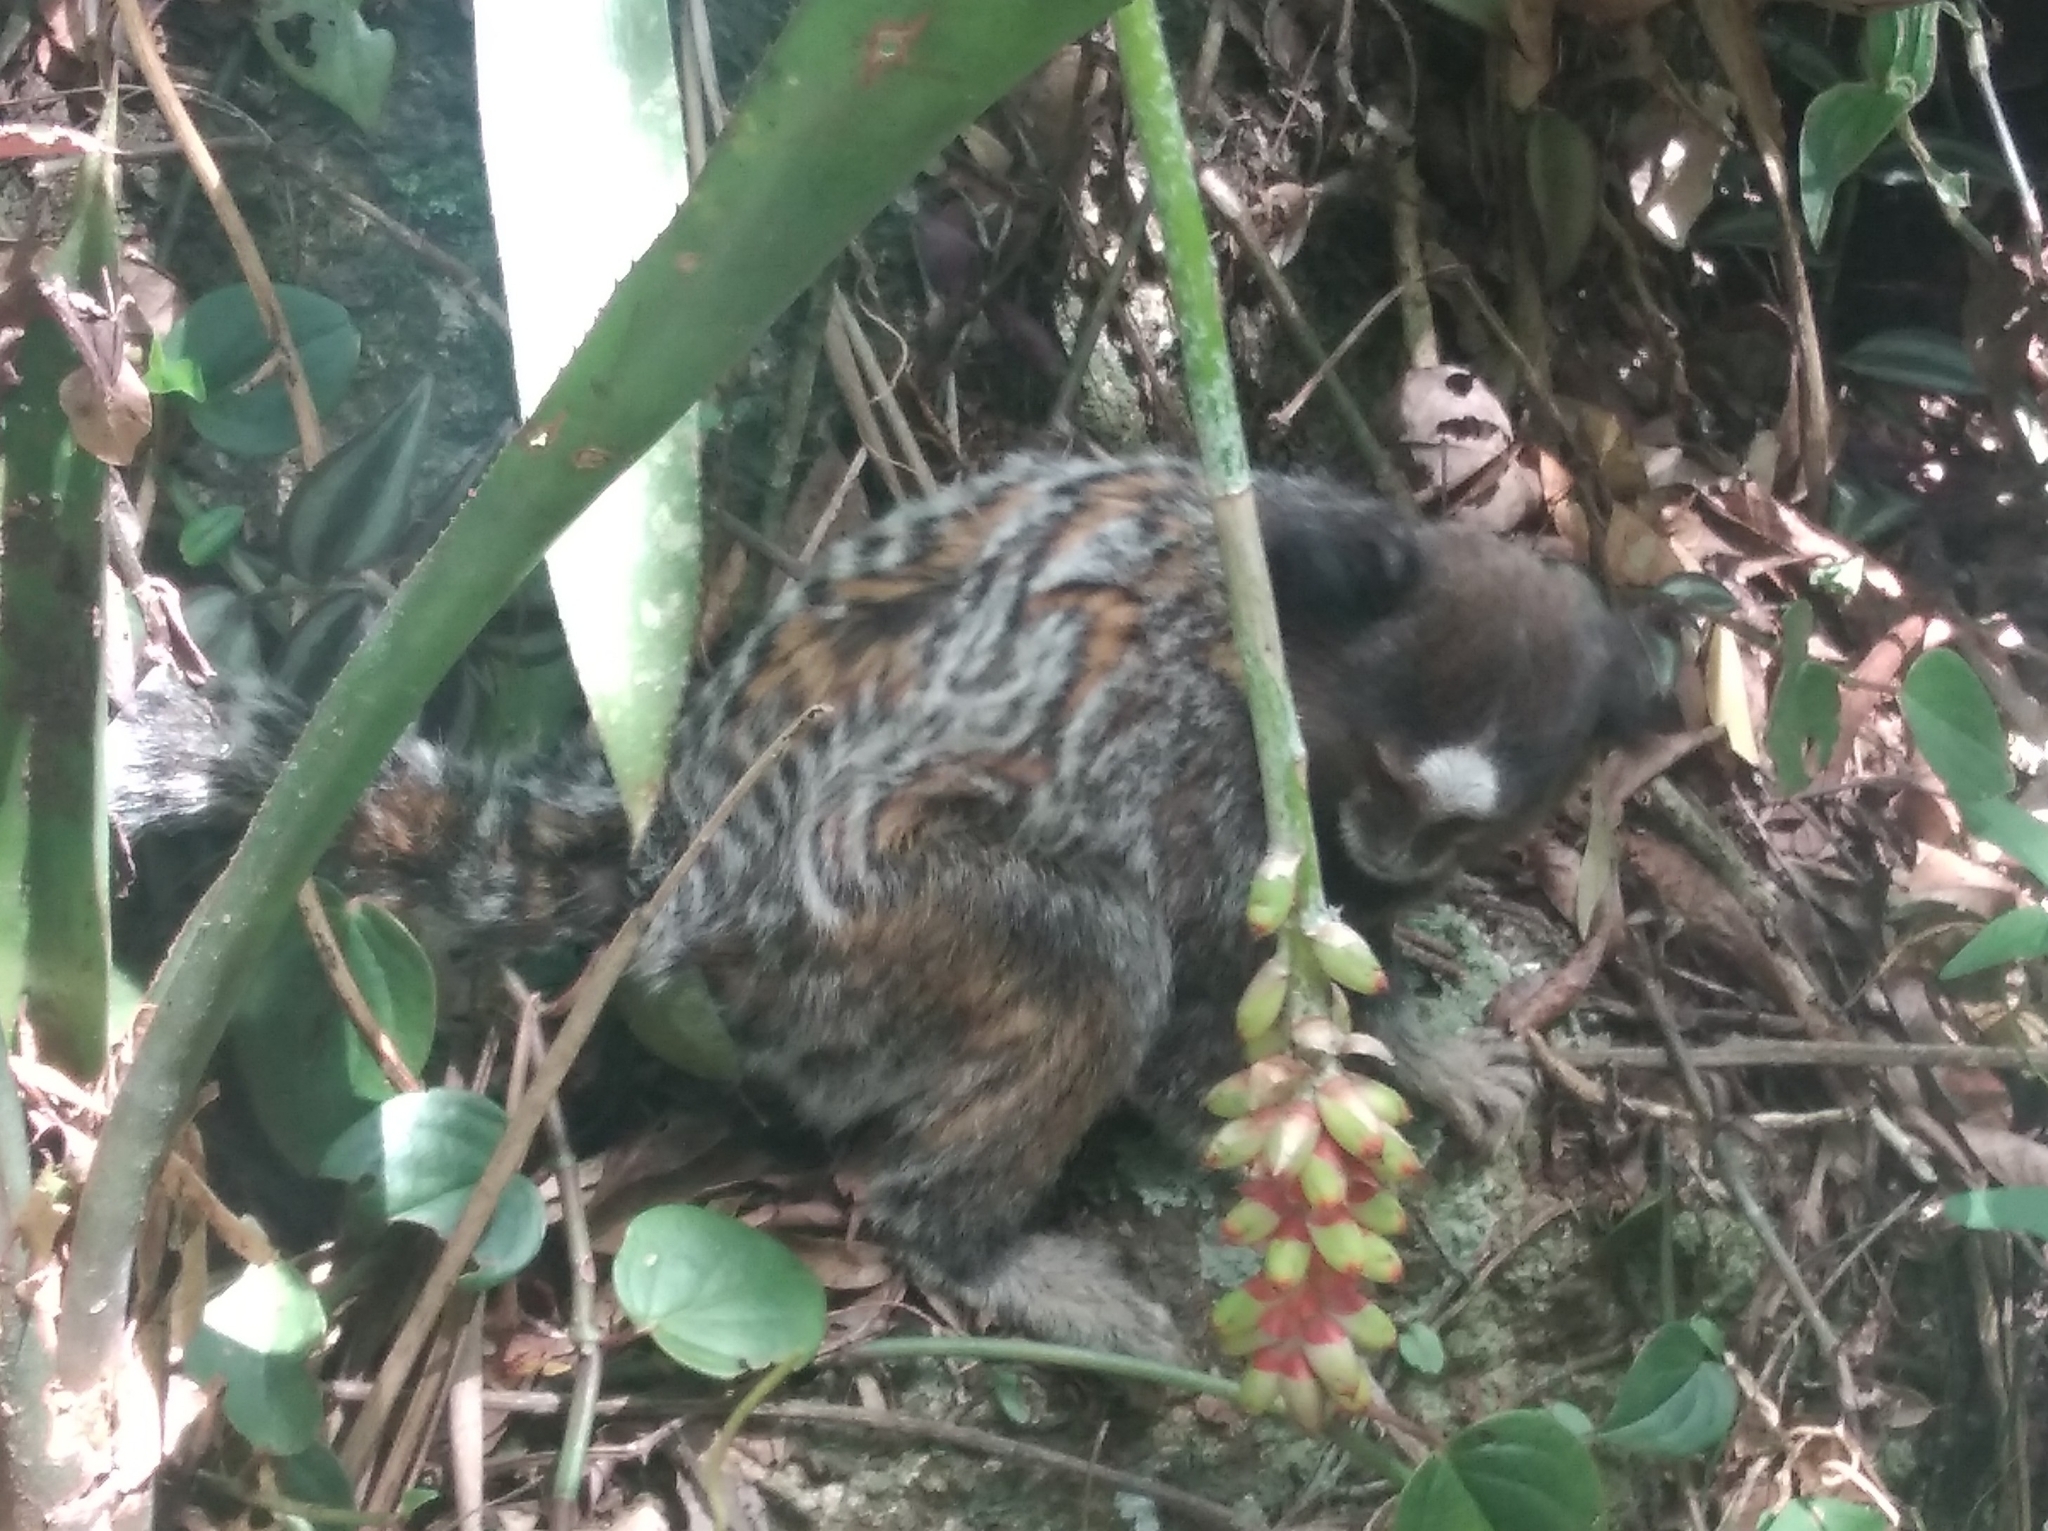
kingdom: Animalia
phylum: Chordata
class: Mammalia
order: Primates
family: Callitrichidae
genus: Callithrix
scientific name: Callithrix penicillata
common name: Black-tufted marmoset
